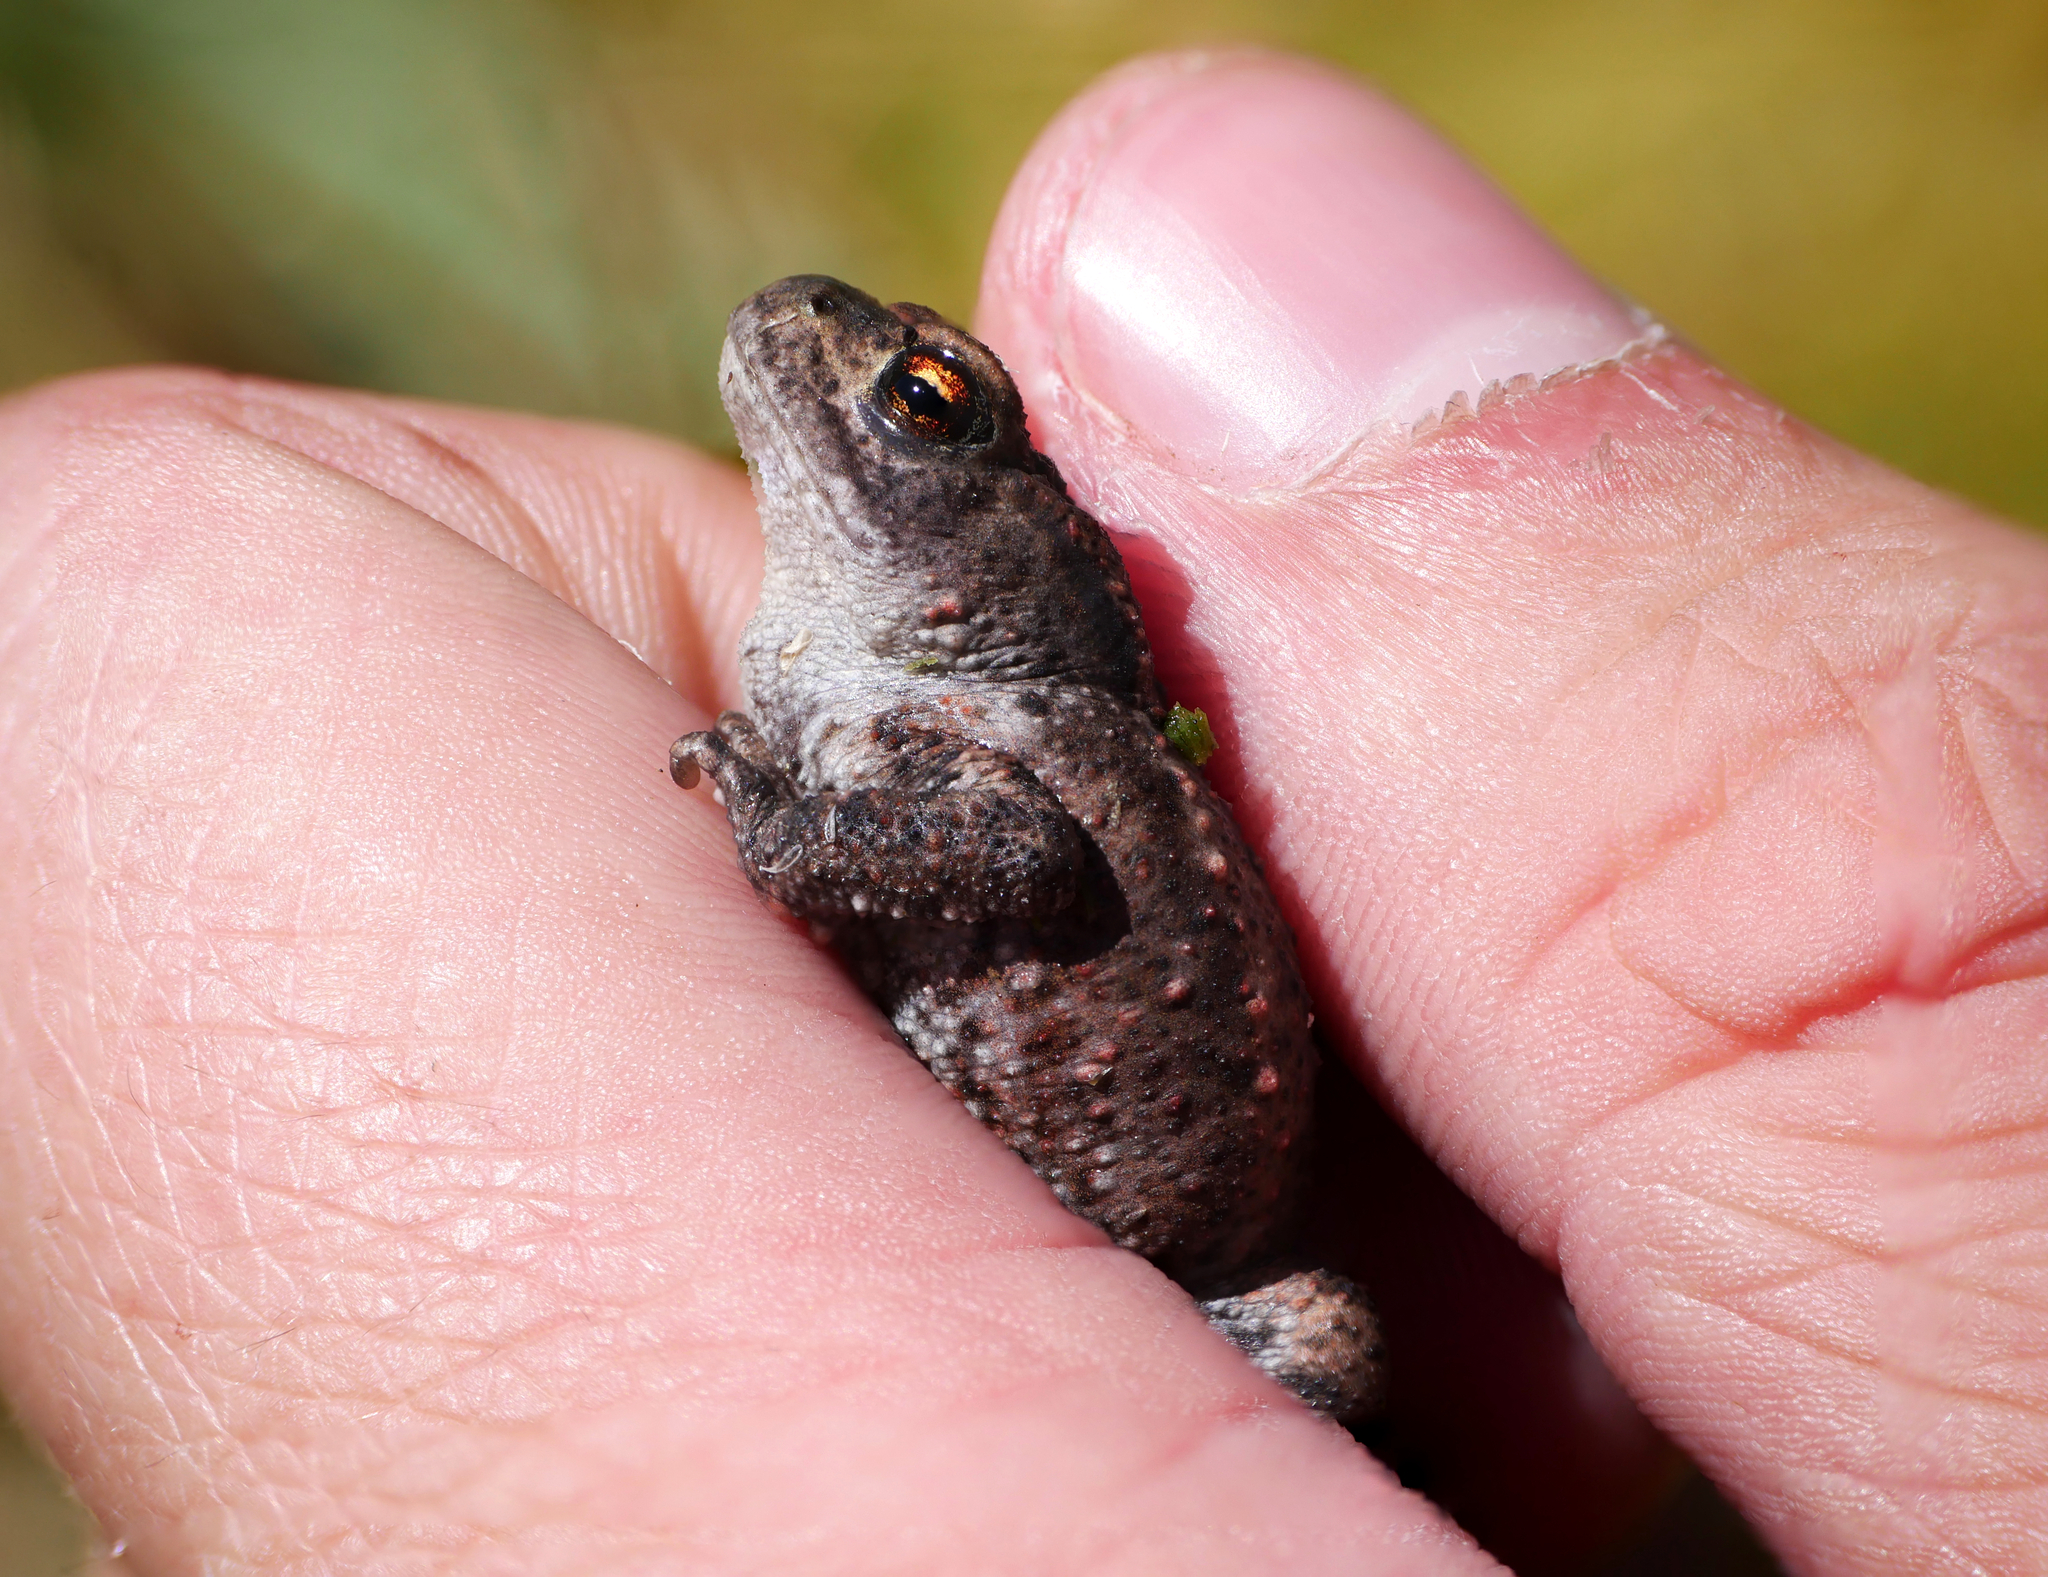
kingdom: Animalia
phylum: Chordata
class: Amphibia
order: Anura
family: Bufonidae
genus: Bufo
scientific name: Bufo bufo
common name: Common toad
